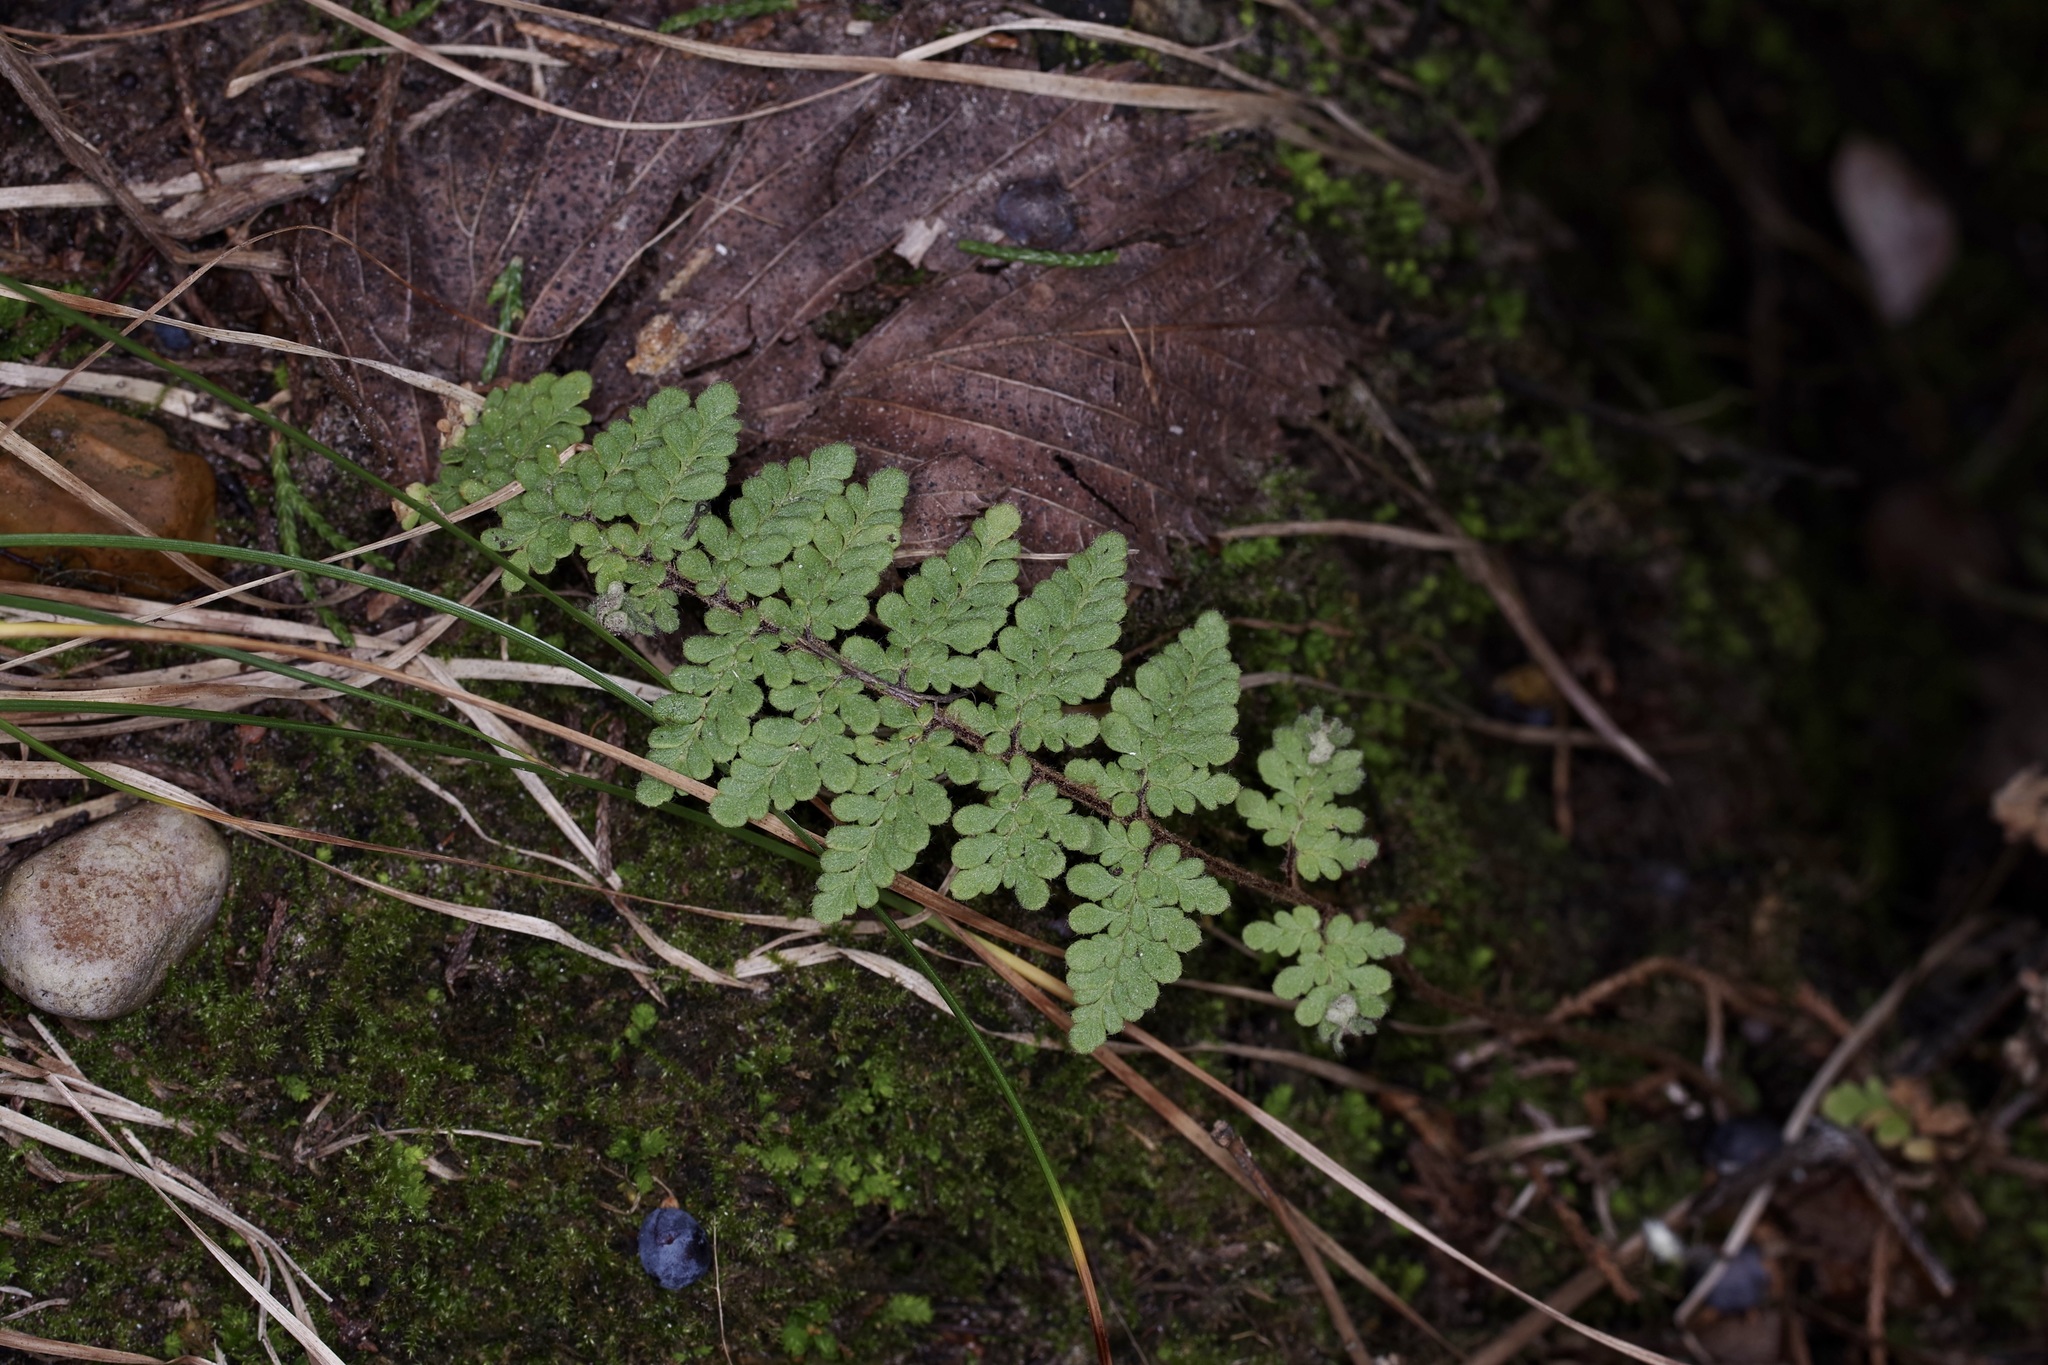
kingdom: Plantae
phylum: Tracheophyta
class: Polypodiopsida
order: Polypodiales
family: Pteridaceae
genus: Myriopteris
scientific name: Myriopteris tomentosa
